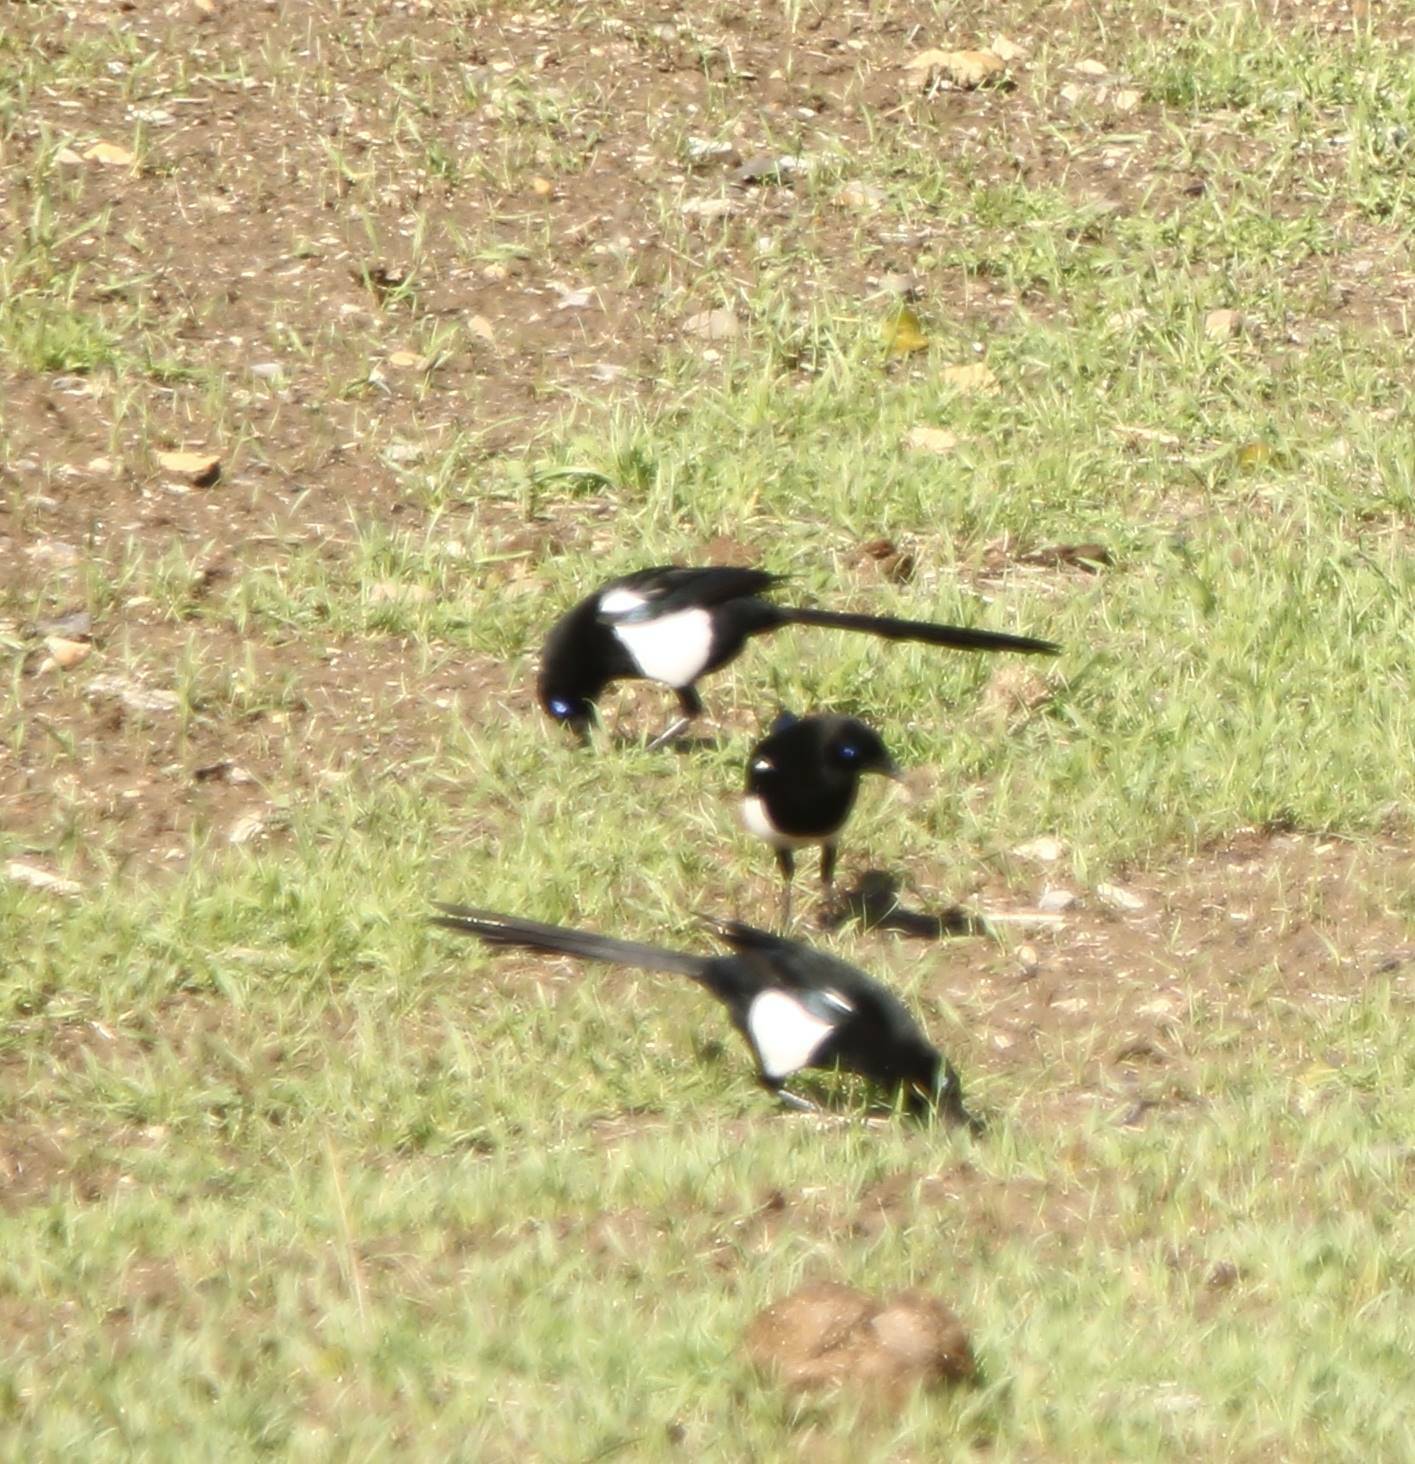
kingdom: Animalia
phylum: Chordata
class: Aves
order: Passeriformes
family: Corvidae
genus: Pica
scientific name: Pica mauritanica
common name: Maghreb magpie
